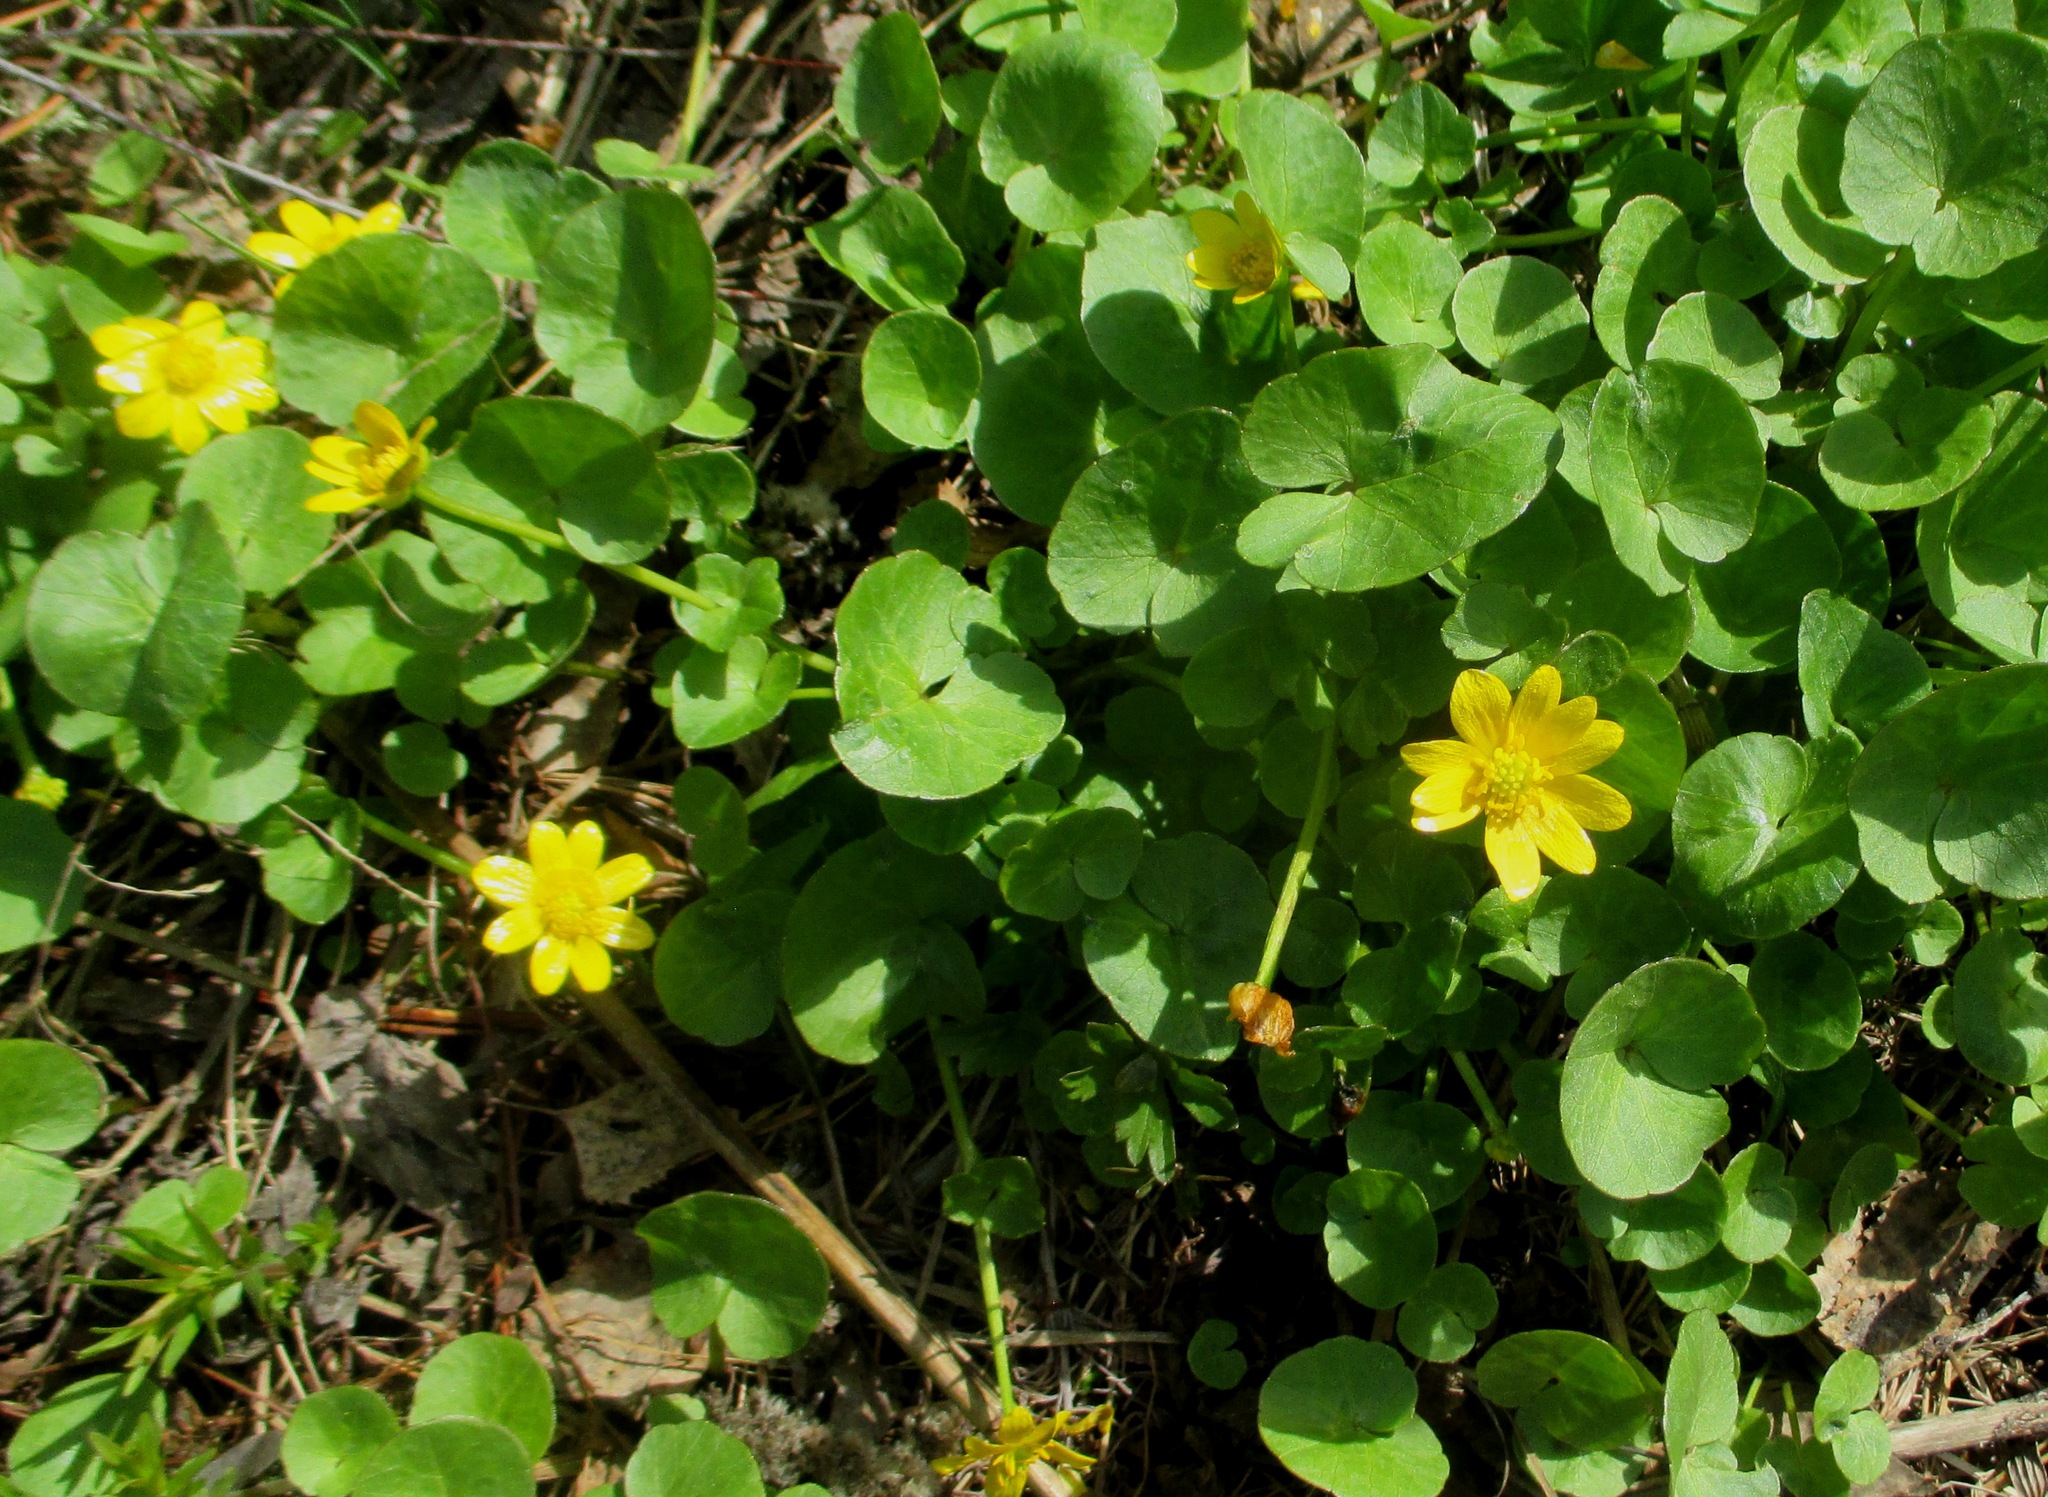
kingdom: Plantae
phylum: Tracheophyta
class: Magnoliopsida
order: Ranunculales
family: Ranunculaceae
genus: Ficaria
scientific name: Ficaria verna
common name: Lesser celandine
